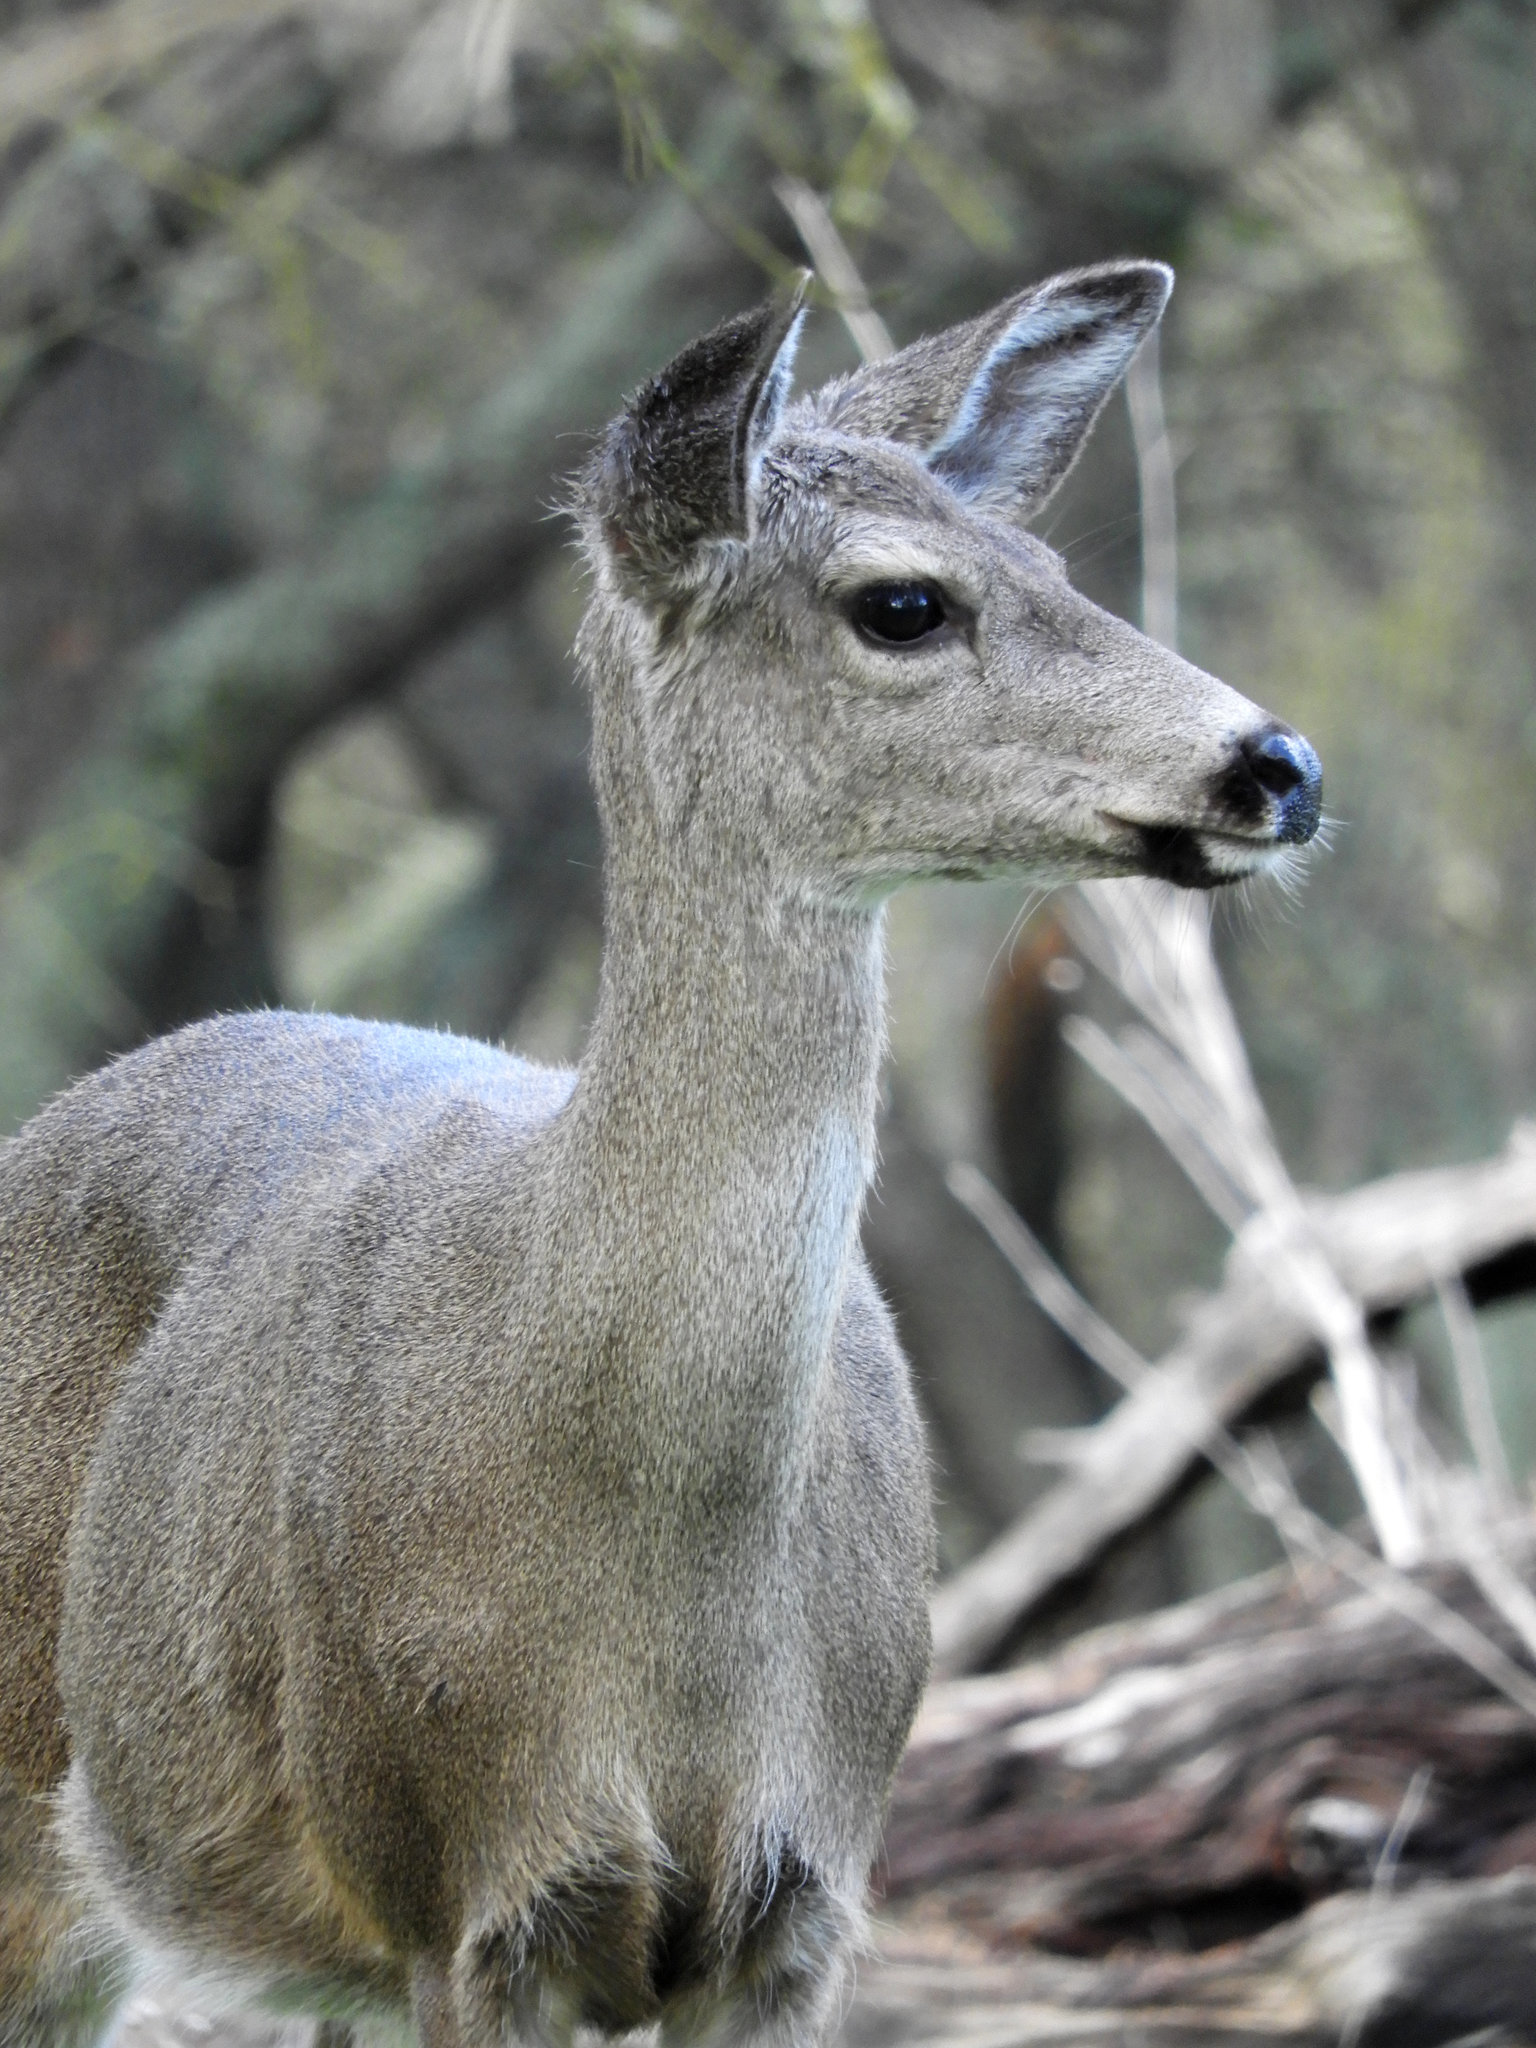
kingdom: Animalia
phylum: Chordata
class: Mammalia
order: Artiodactyla
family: Cervidae
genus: Odocoileus
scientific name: Odocoileus hemionus
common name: Mule deer
